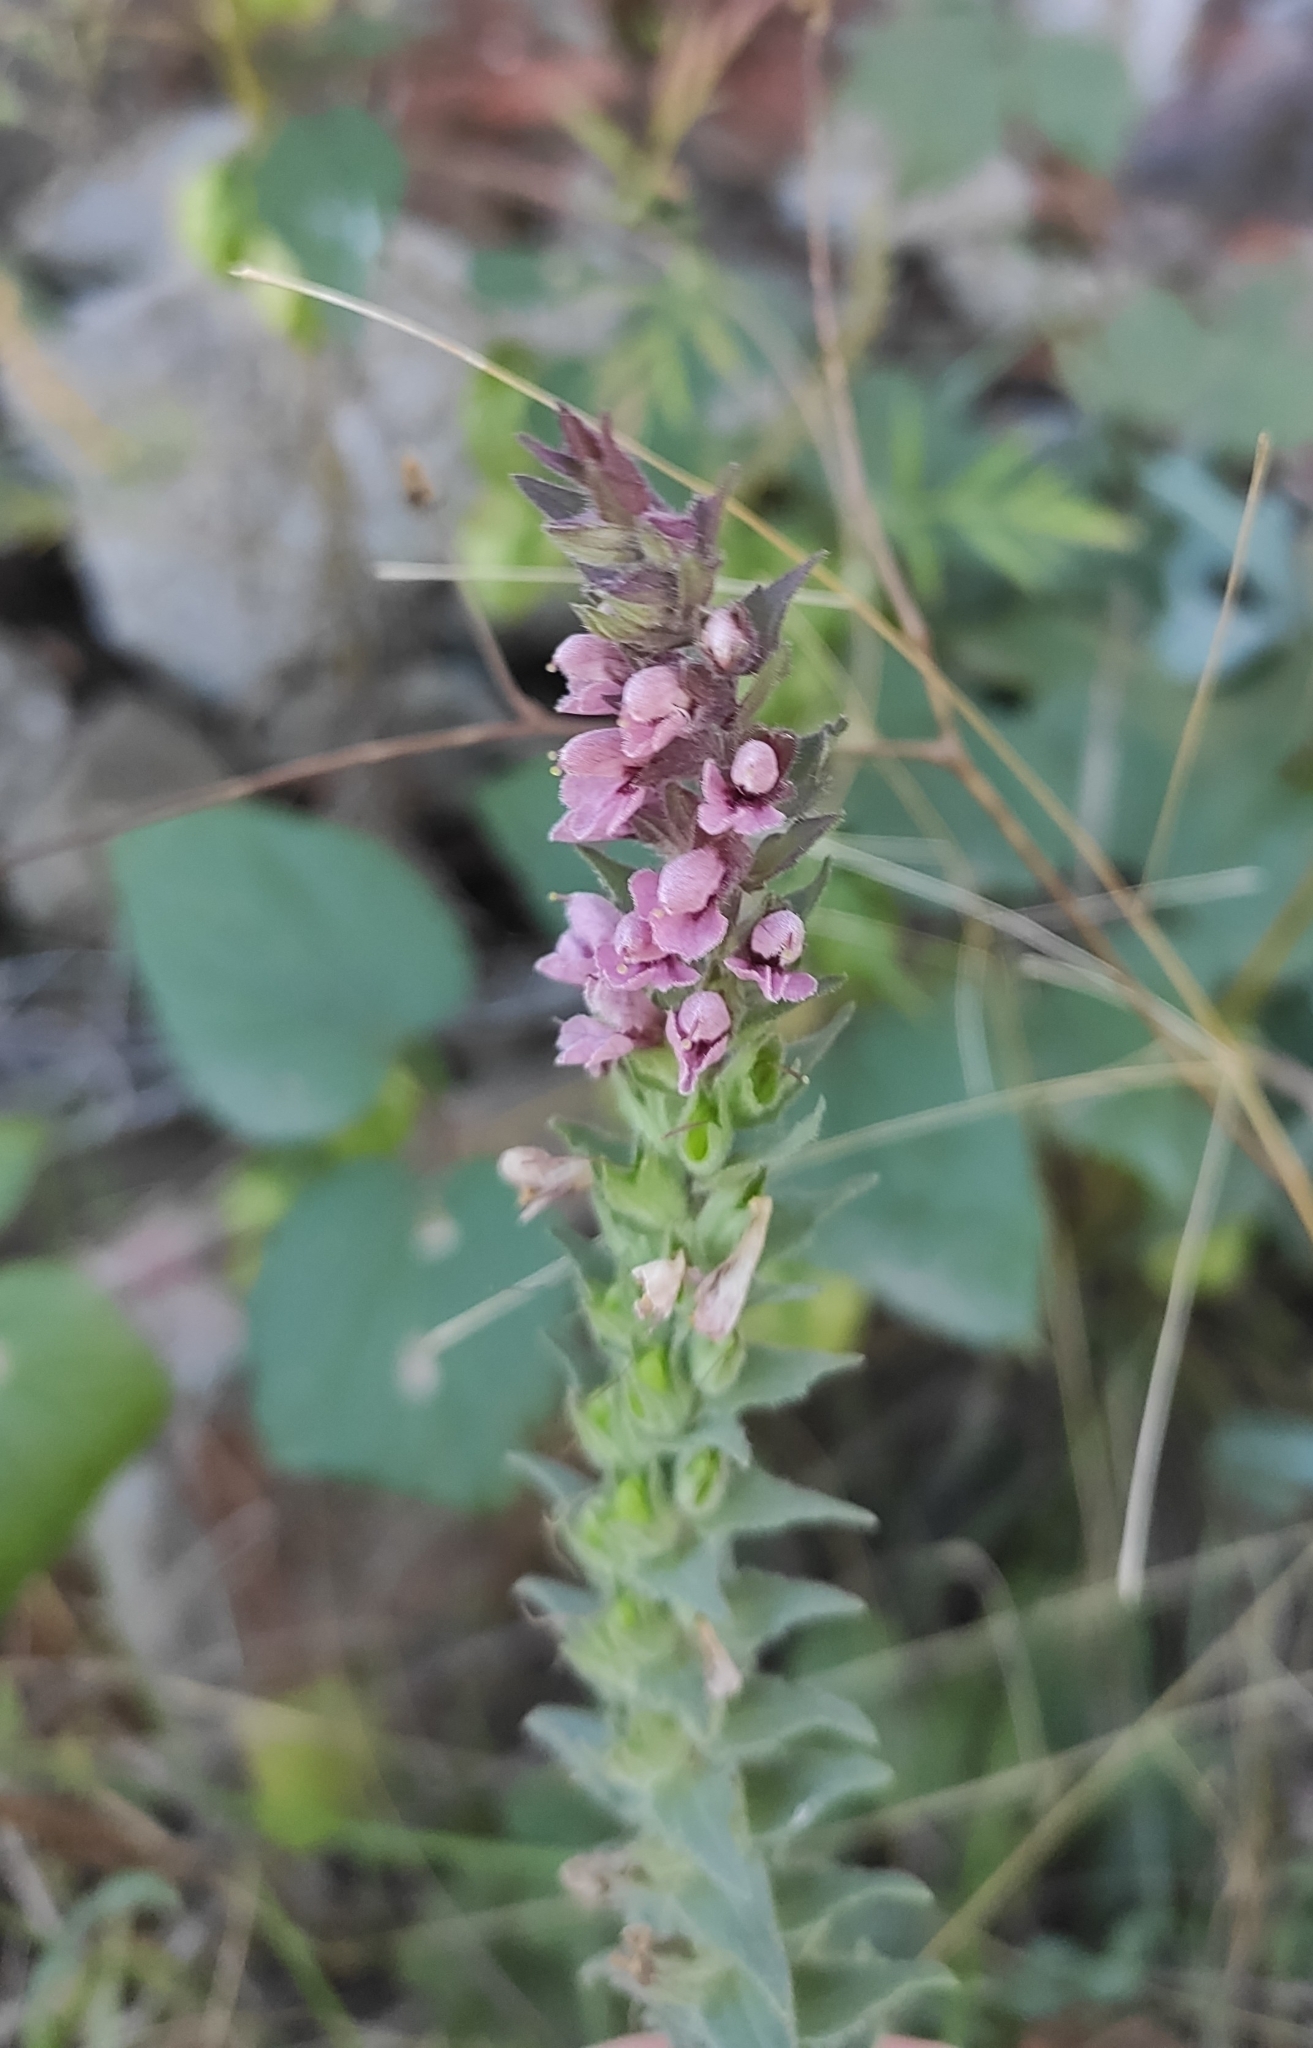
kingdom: Plantae
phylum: Tracheophyta
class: Magnoliopsida
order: Lamiales
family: Orobanchaceae
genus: Odontites
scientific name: Odontites vulgaris
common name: Broomrape
